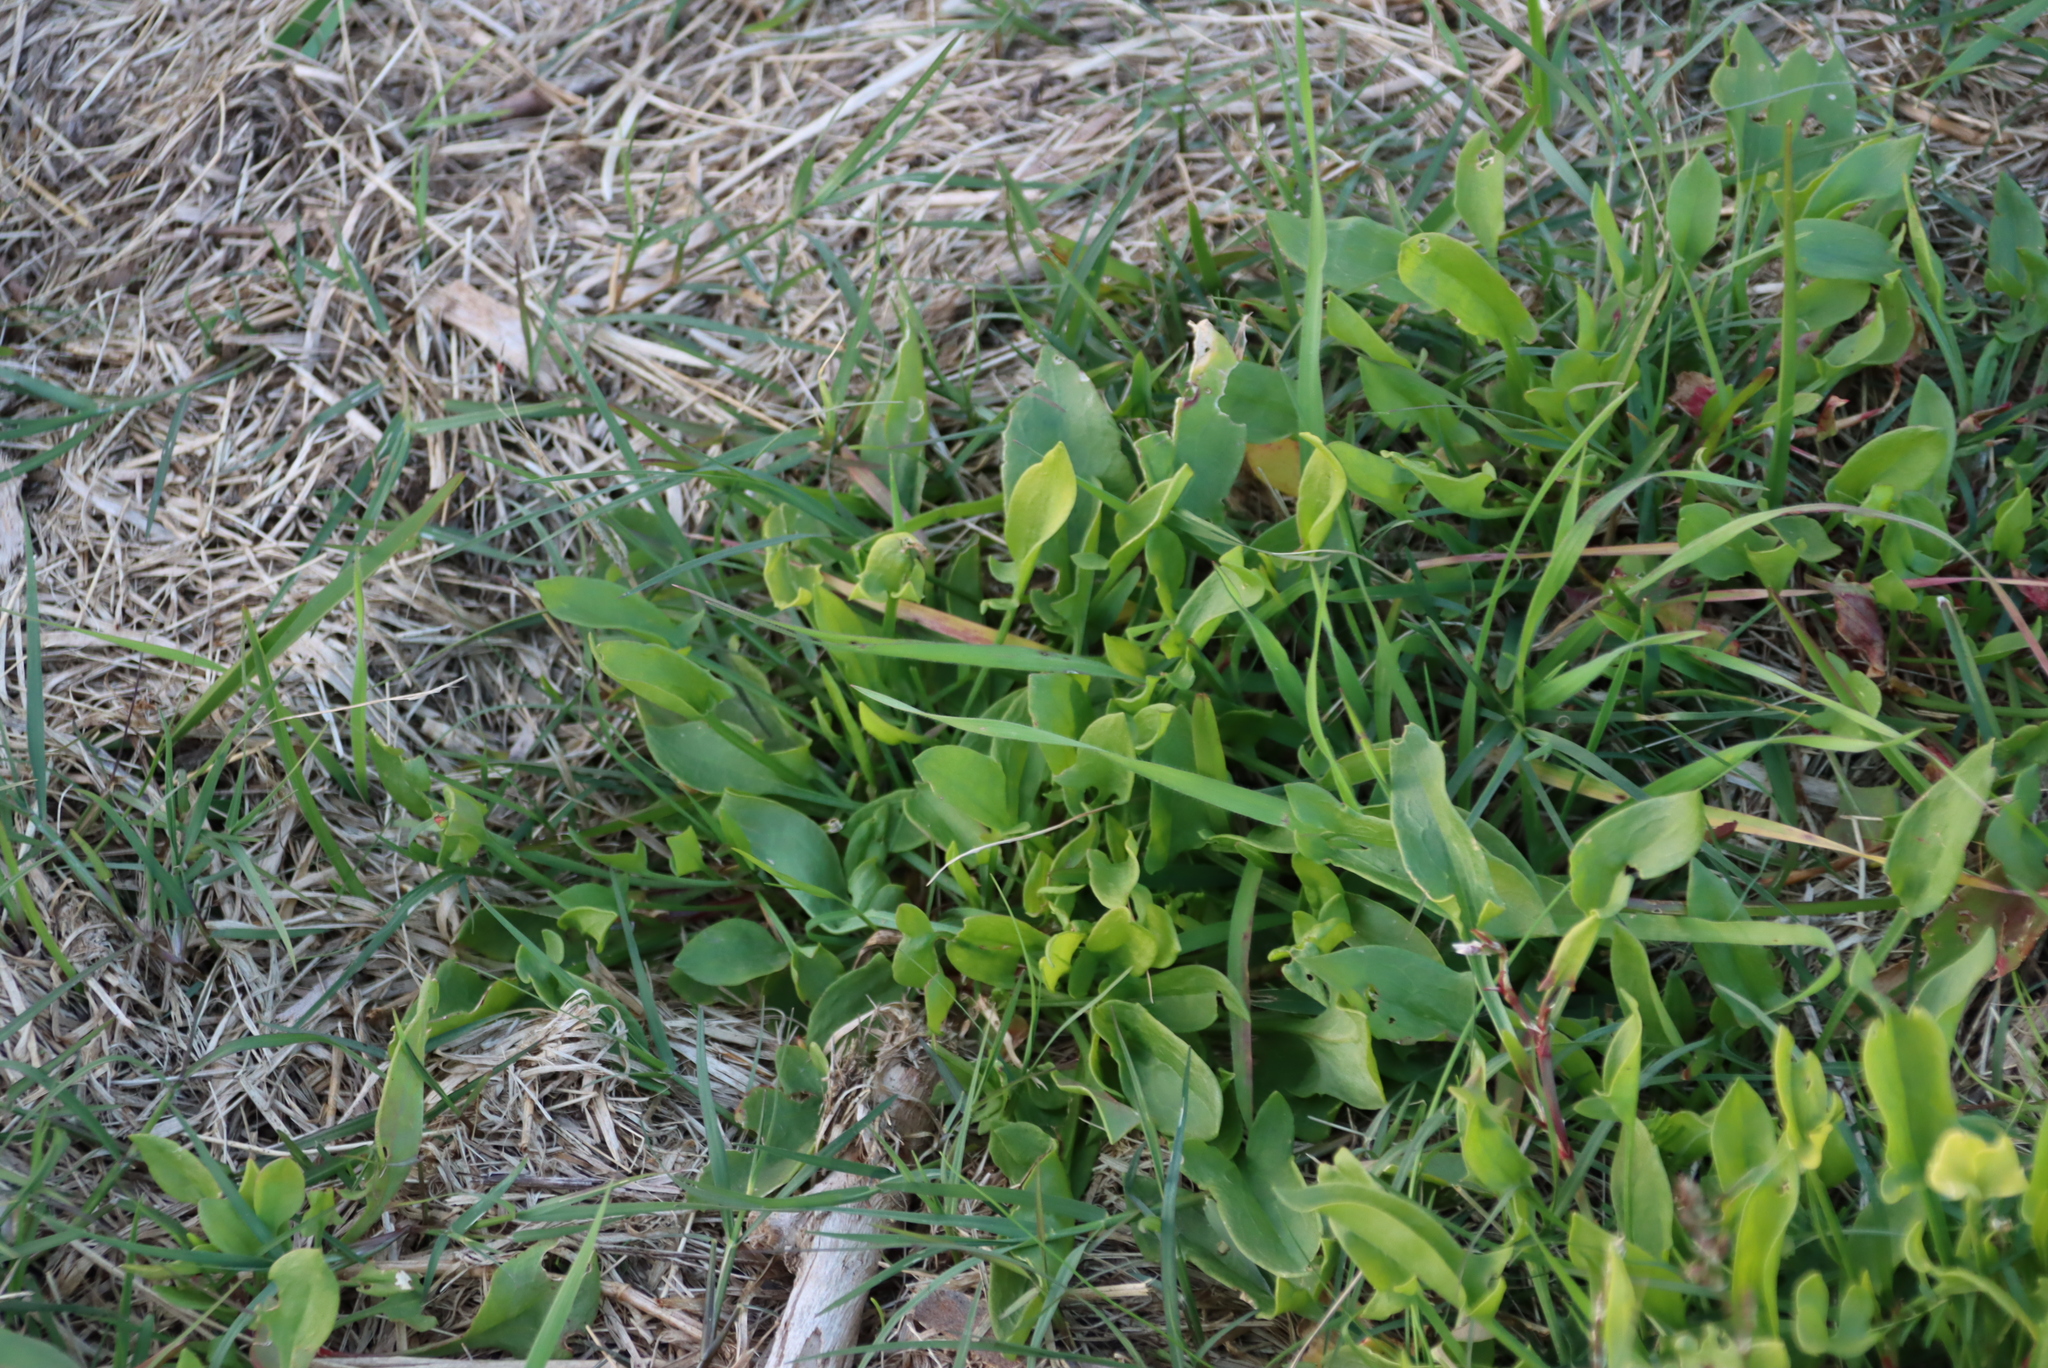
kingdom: Plantae
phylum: Tracheophyta
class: Magnoliopsida
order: Caryophyllales
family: Polygonaceae
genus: Rumex
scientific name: Rumex acetosella
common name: Common sheep sorrel
